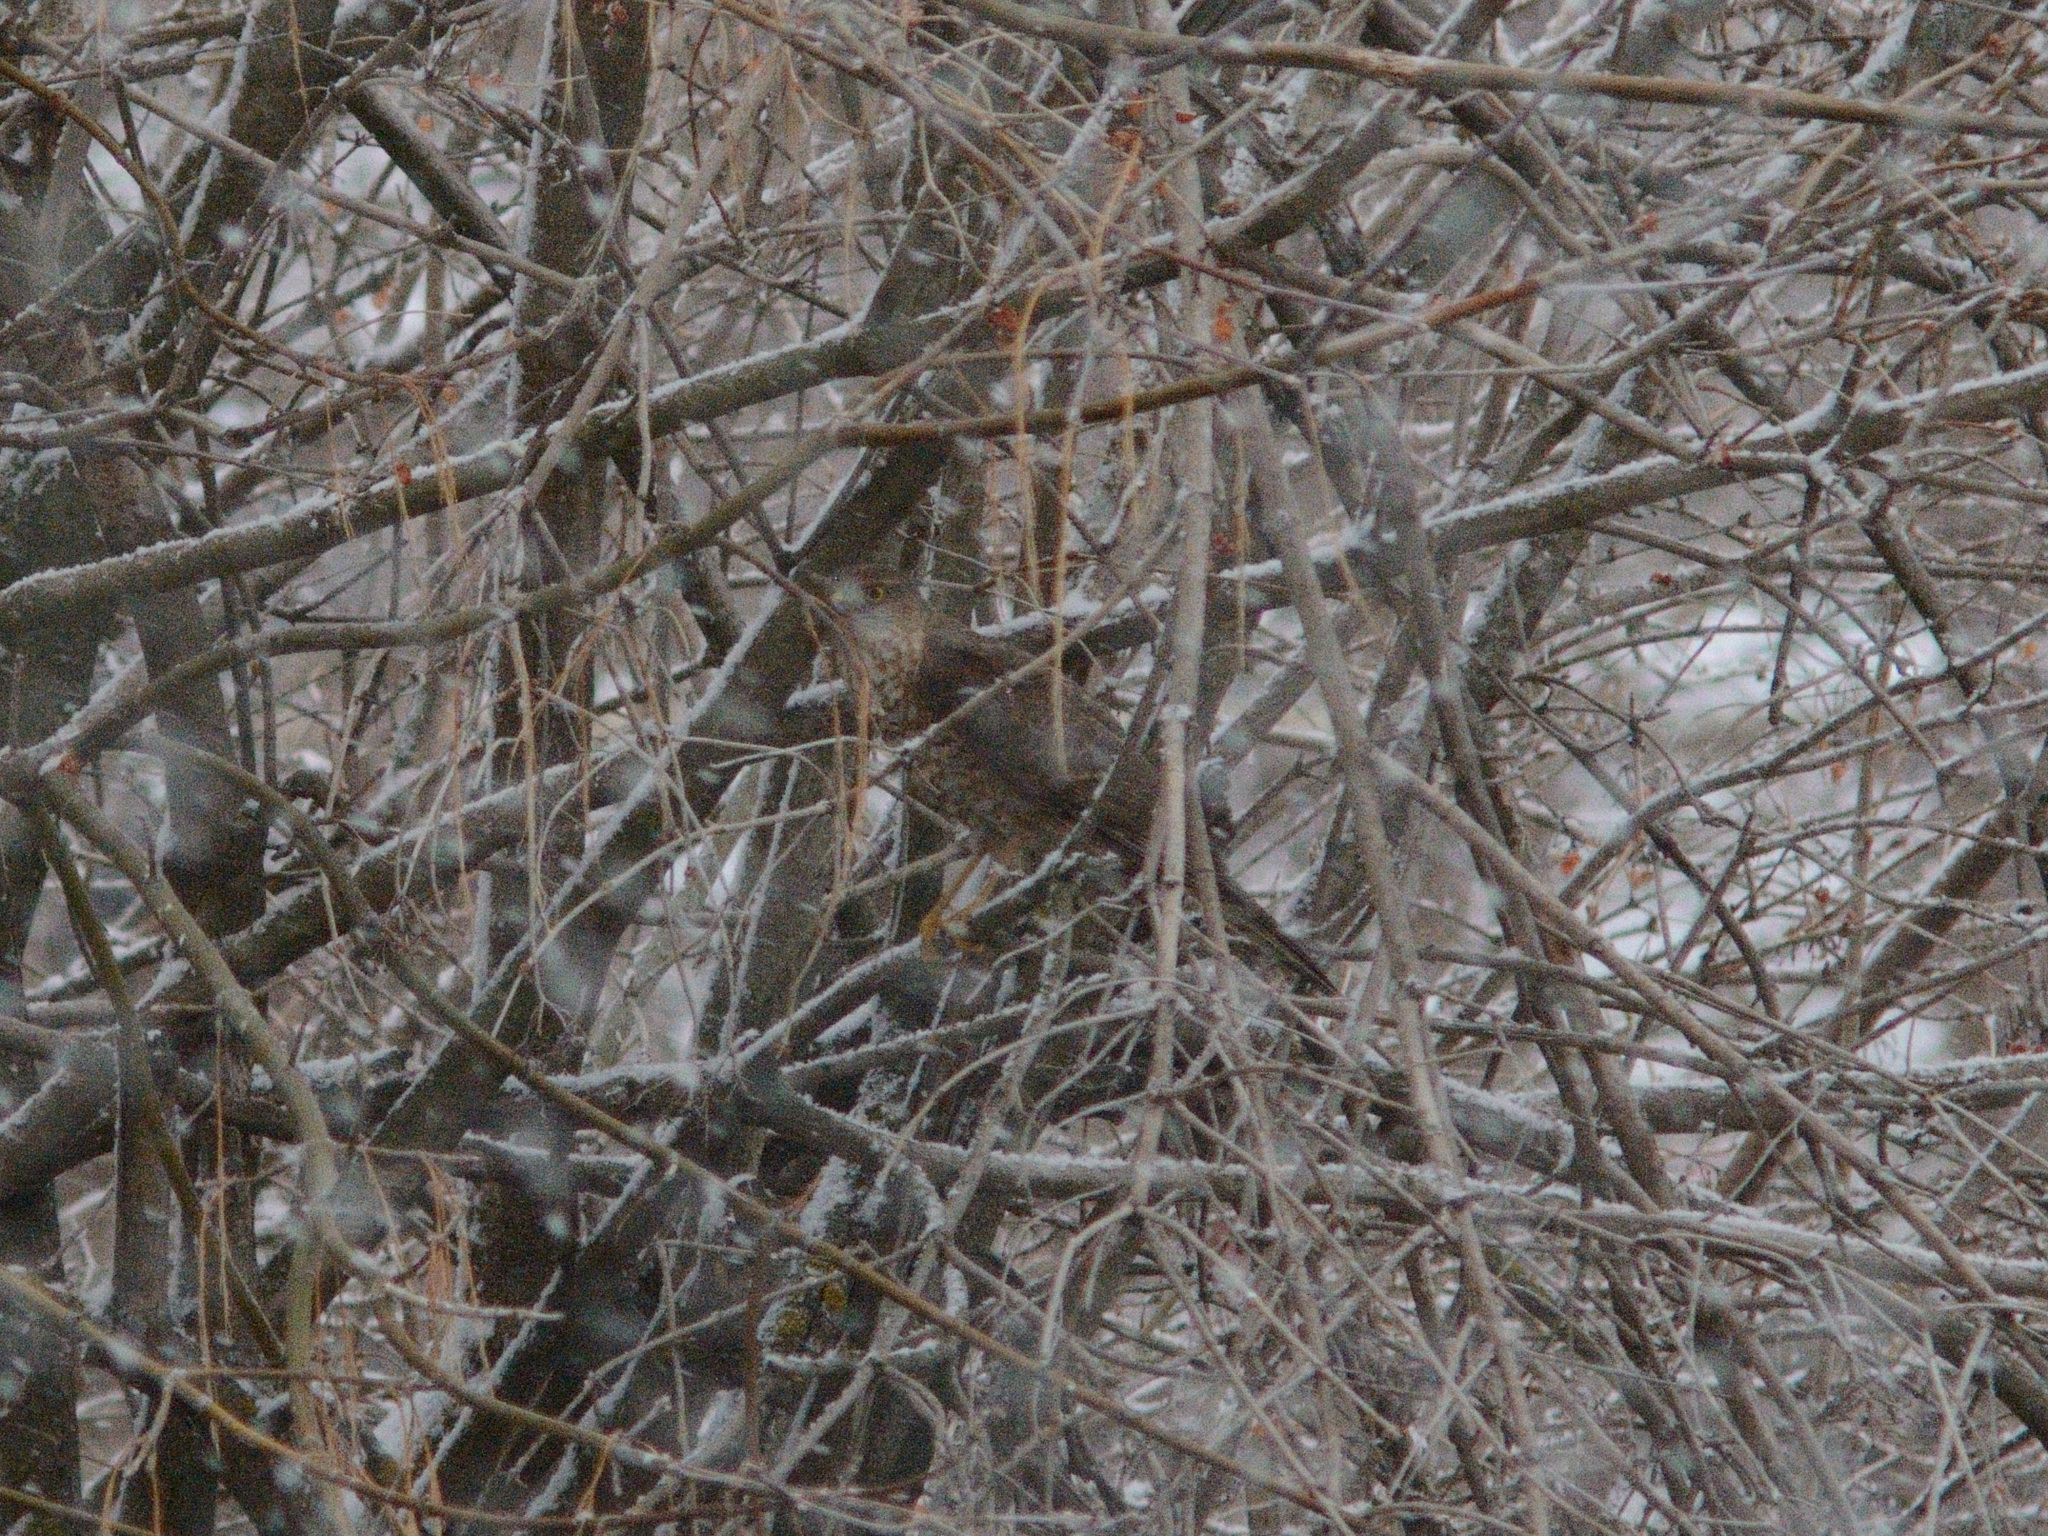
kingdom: Animalia
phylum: Chordata
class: Aves
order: Accipitriformes
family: Accipitridae
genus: Accipiter
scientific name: Accipiter nisus
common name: Eurasian sparrowhawk
